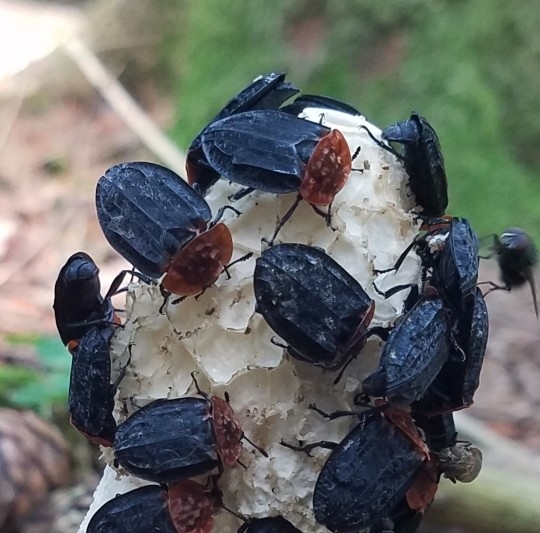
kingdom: Animalia
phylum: Arthropoda
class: Insecta
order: Coleoptera
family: Staphylinidae
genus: Oiceoptoma
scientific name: Oiceoptoma thoracicum
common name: Red-breasted carrion beetle
